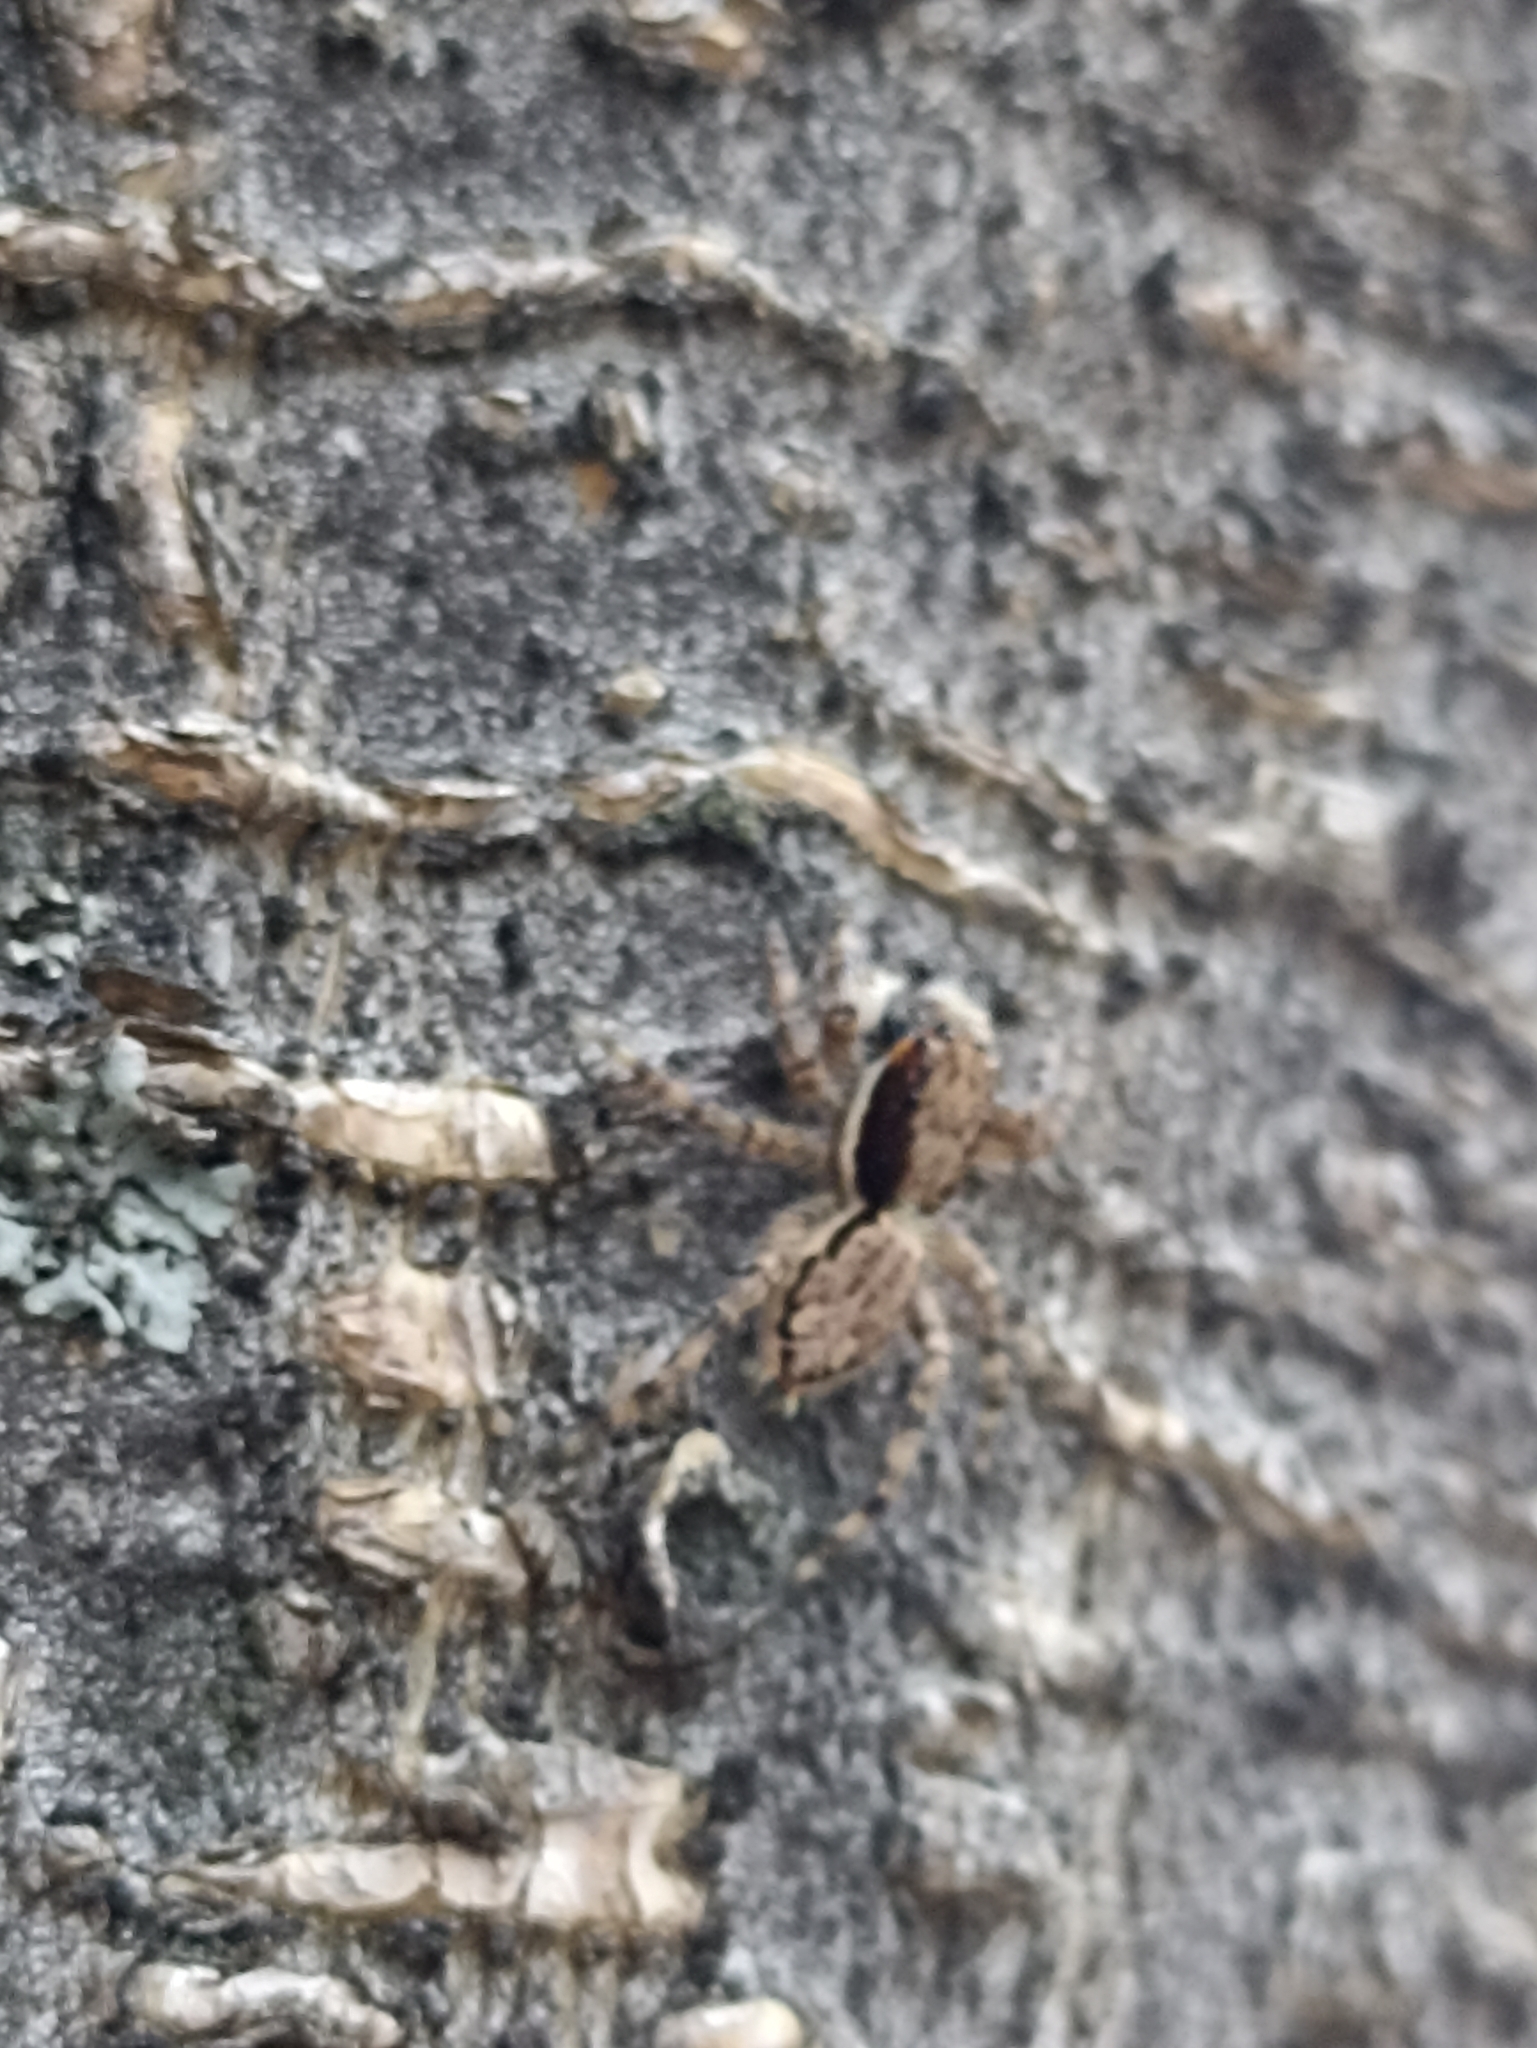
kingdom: Animalia
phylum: Arthropoda
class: Arachnida
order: Araneae
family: Salticidae
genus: Menemerus
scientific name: Menemerus bivittatus
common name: Gray wall jumper
